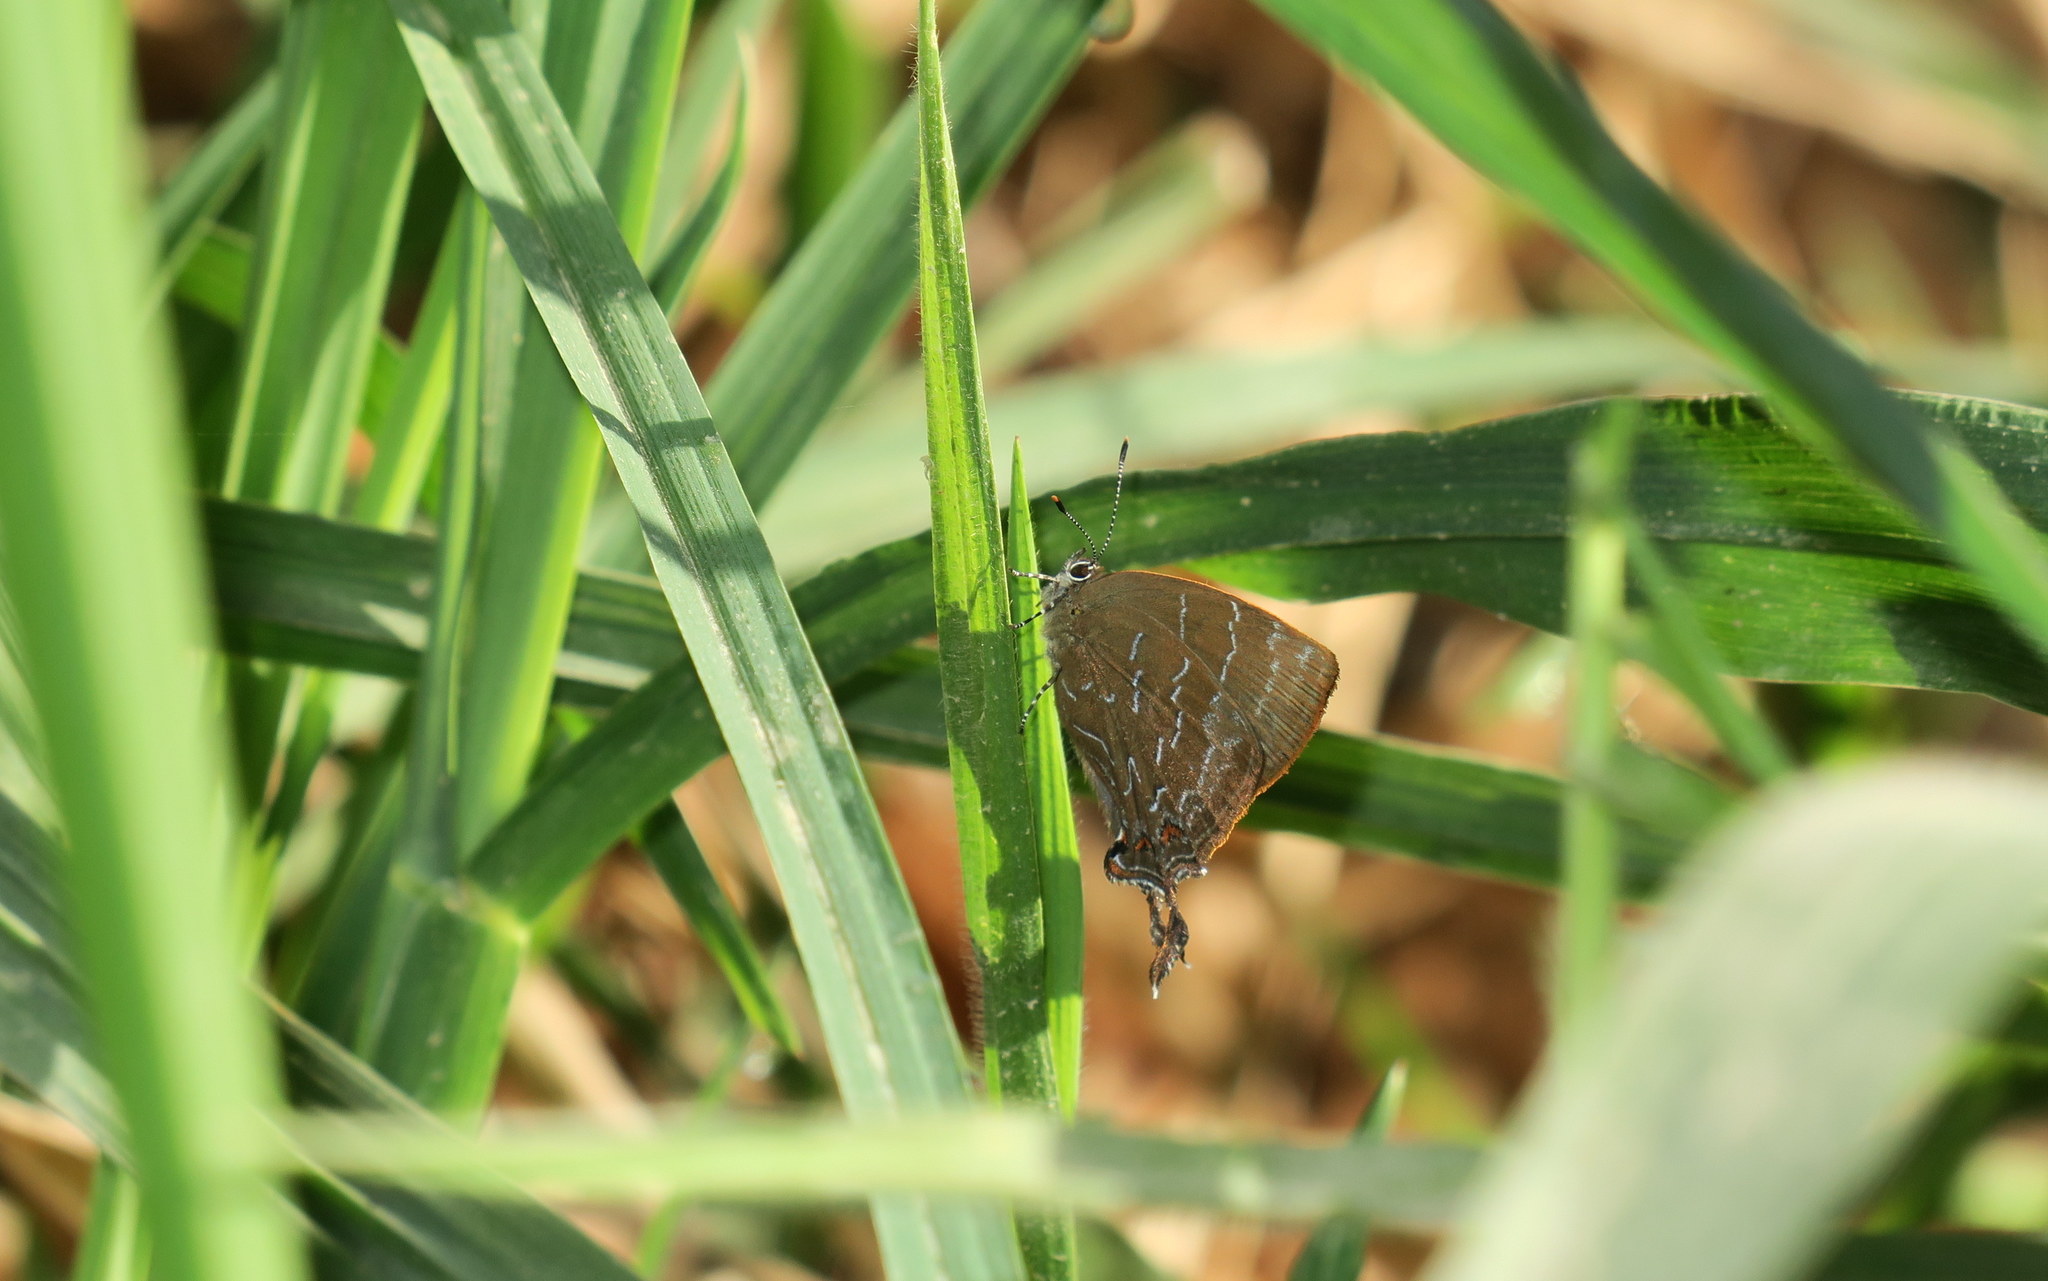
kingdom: Animalia
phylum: Arthropoda
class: Insecta
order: Lepidoptera
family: Lycaenidae
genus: Thecla
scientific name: Thecla auda
